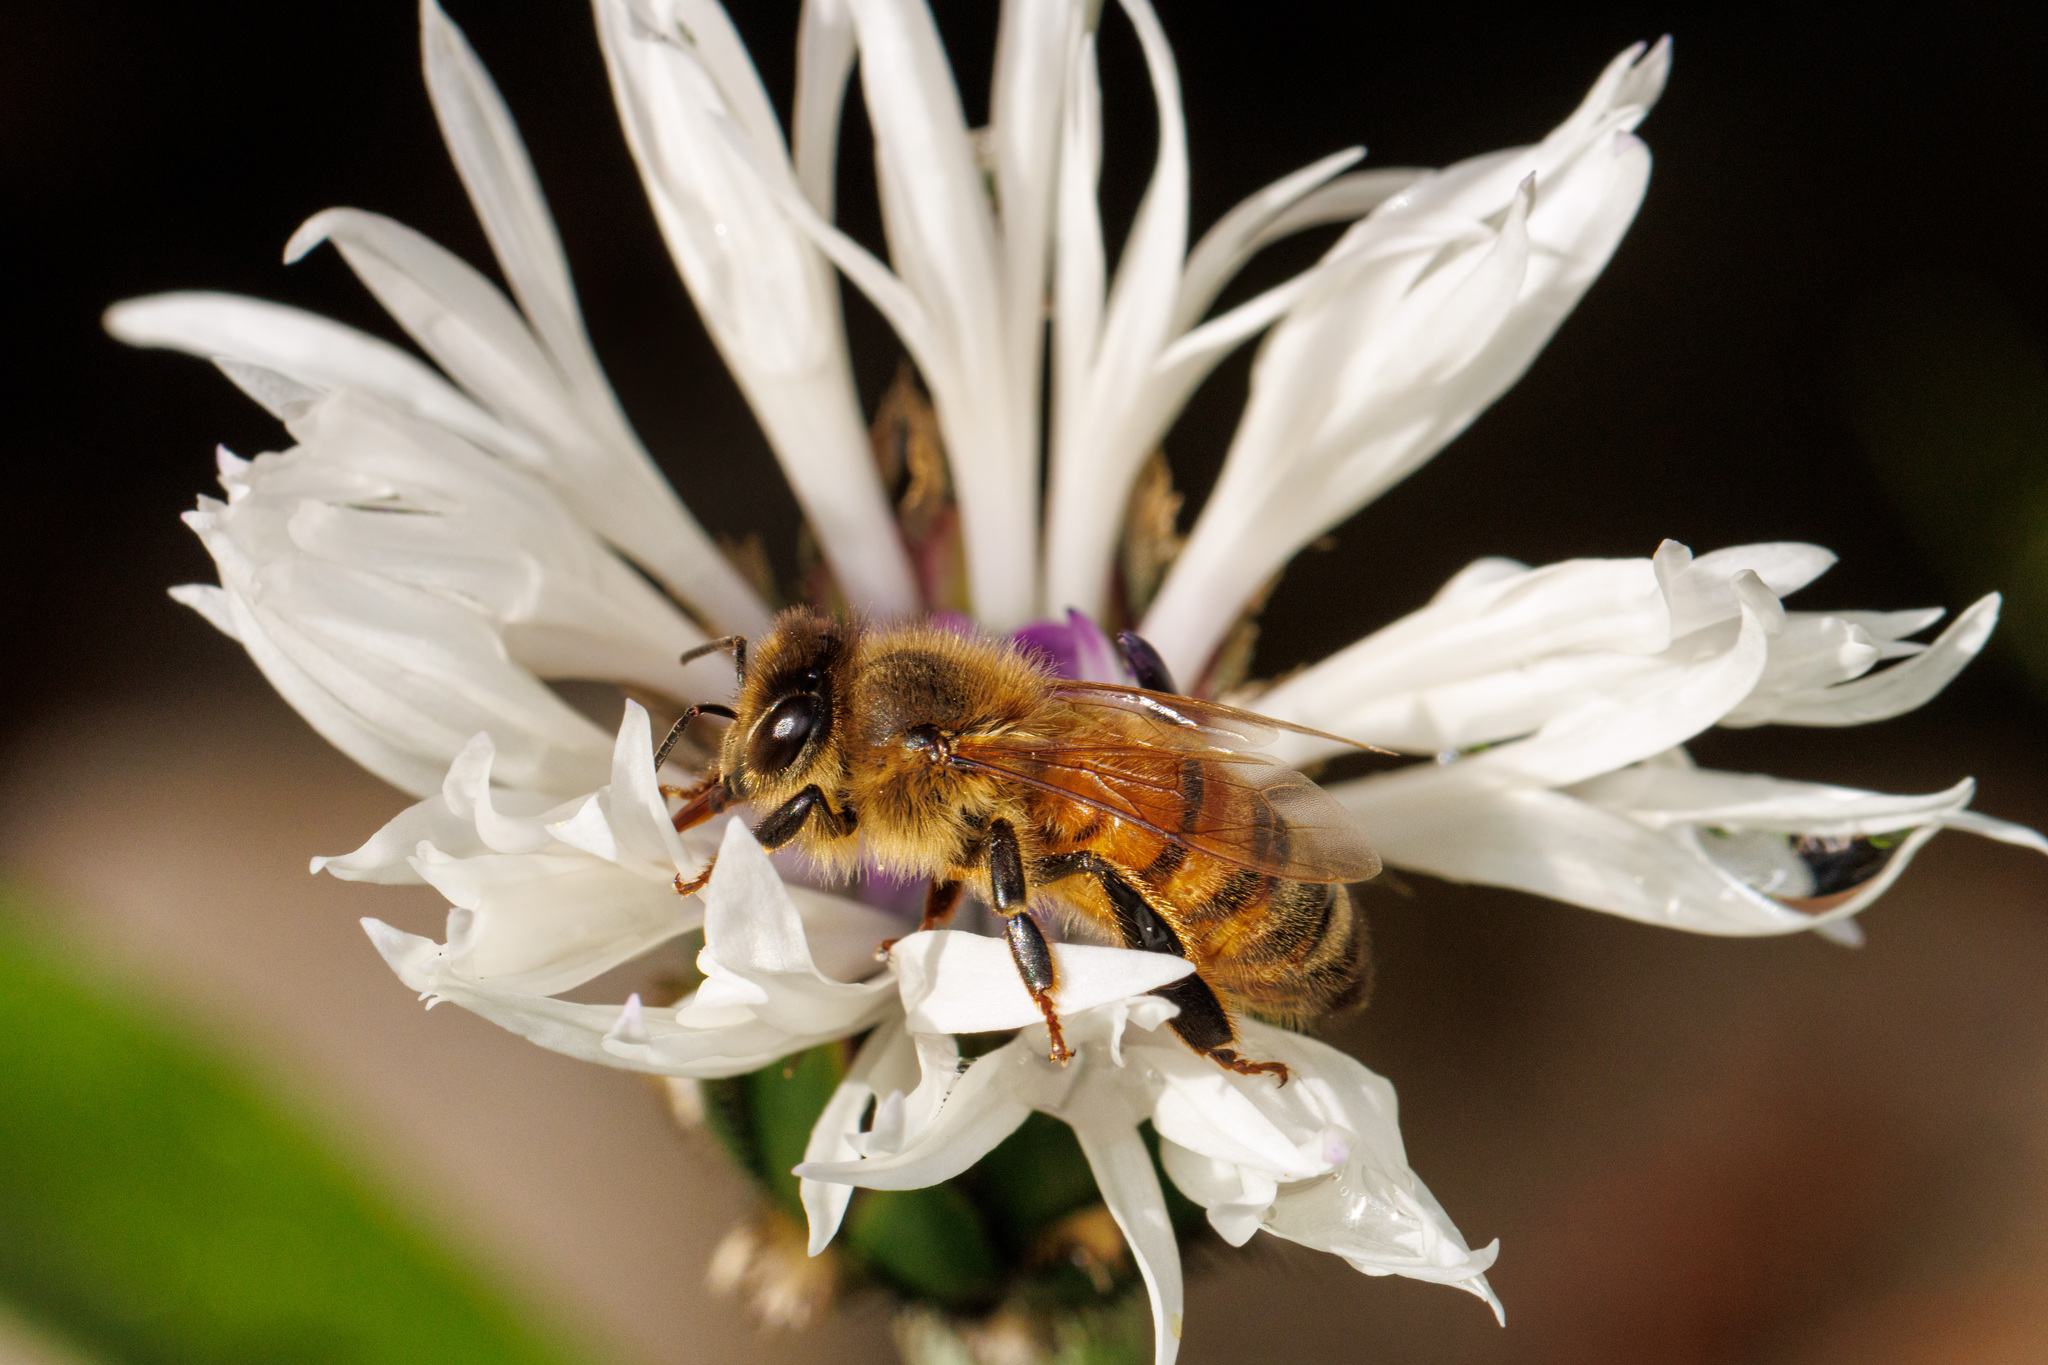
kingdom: Animalia
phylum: Arthropoda
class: Insecta
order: Hymenoptera
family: Apidae
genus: Apis
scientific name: Apis mellifera
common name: Honey bee
